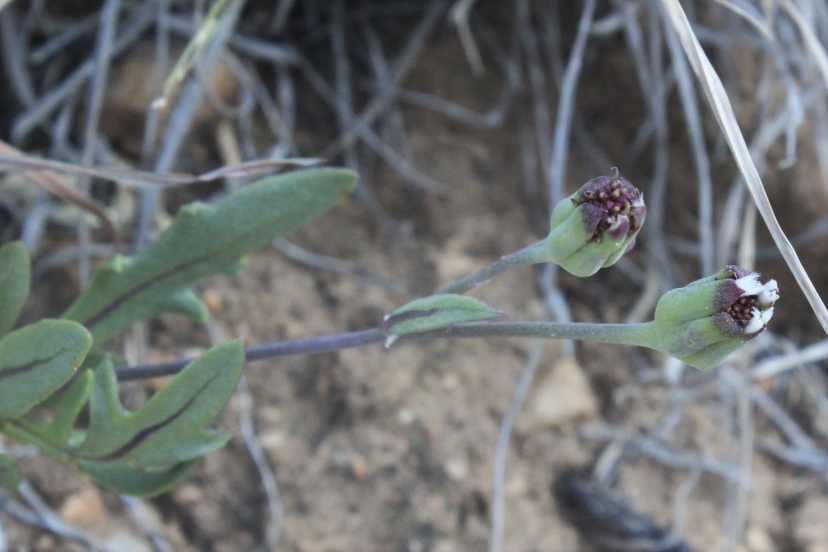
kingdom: Plantae
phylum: Tracheophyta
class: Magnoliopsida
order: Asterales
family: Asteraceae
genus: Othonna
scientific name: Othonna retrofracta
